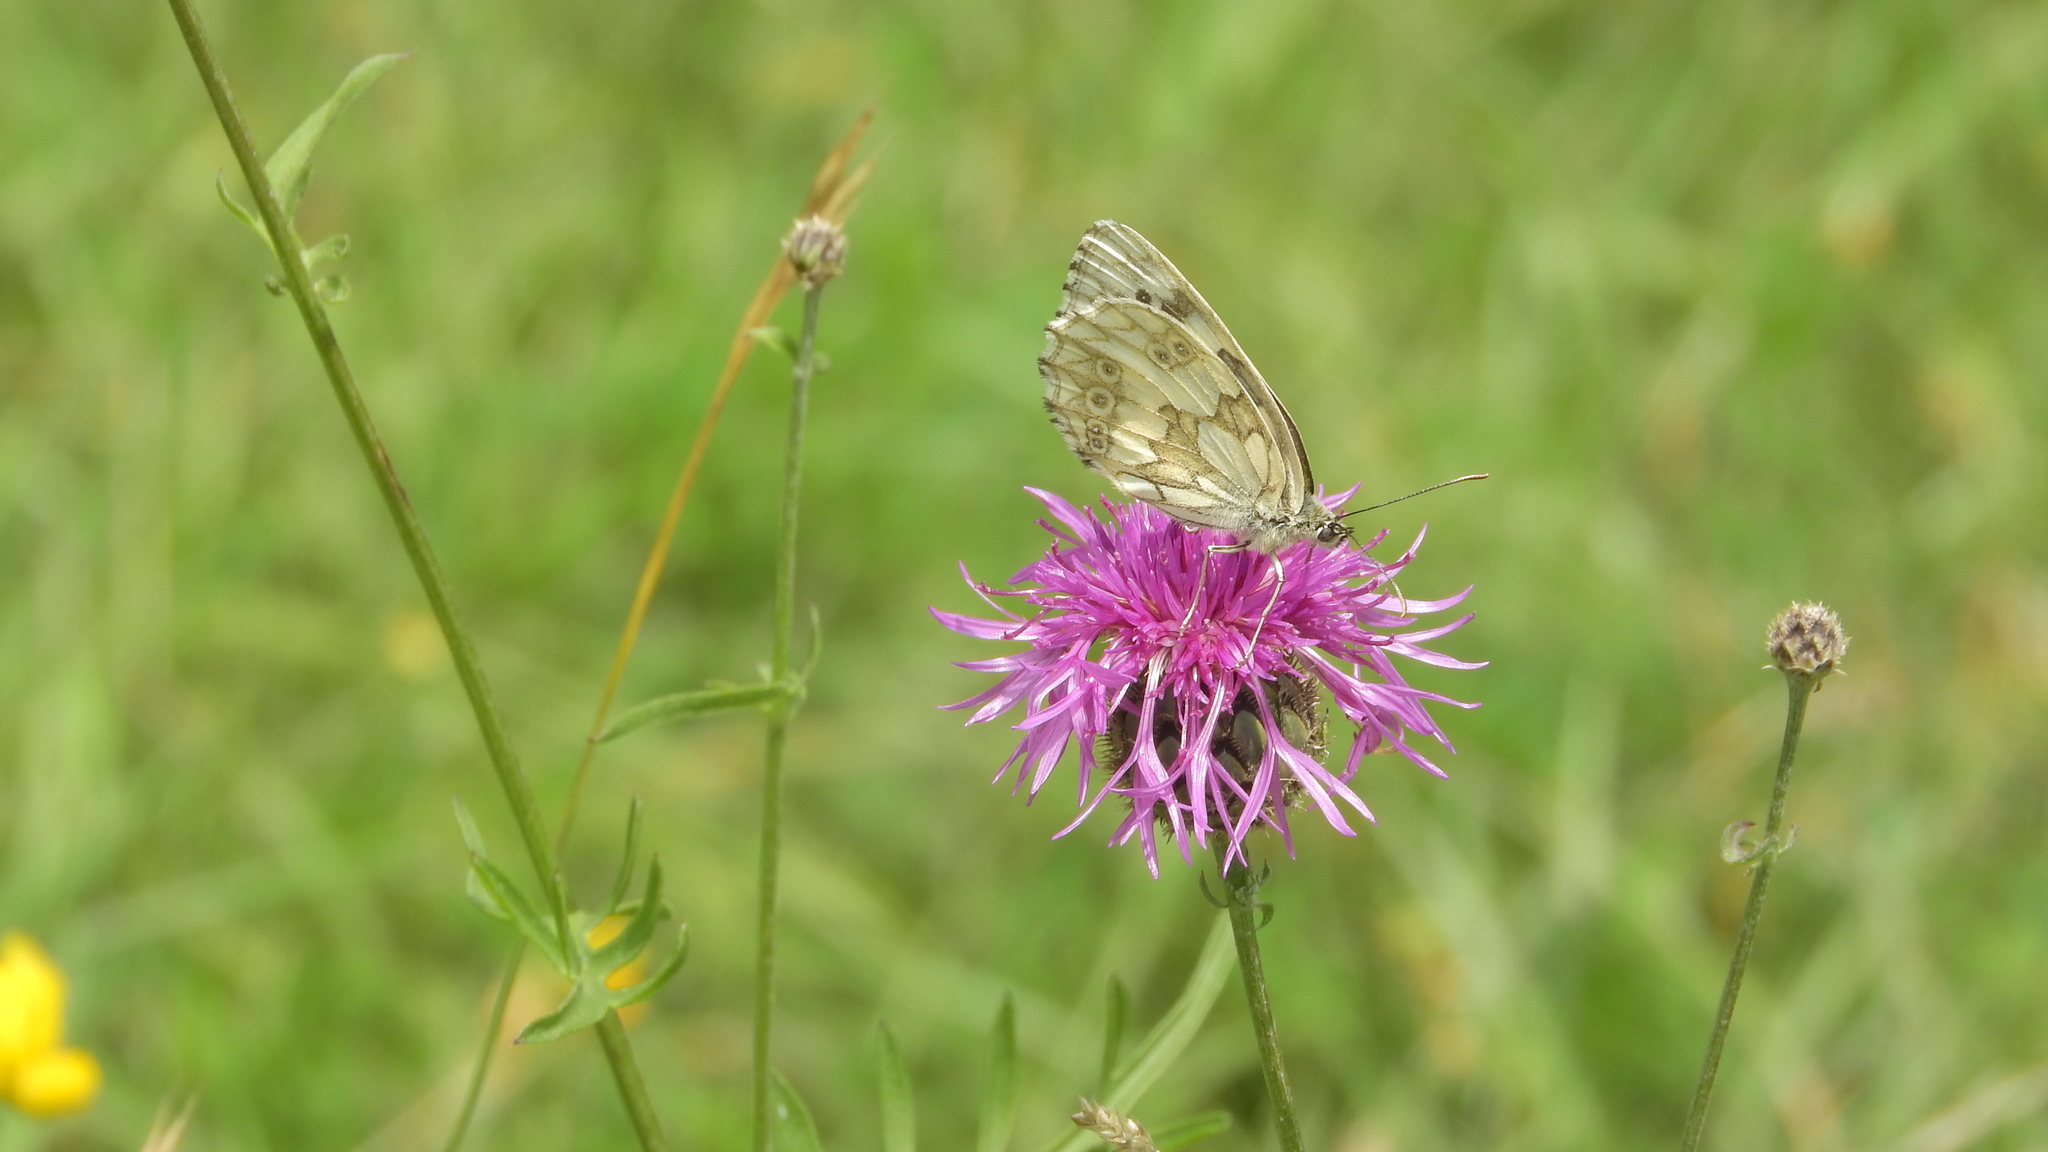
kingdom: Animalia
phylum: Arthropoda
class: Insecta
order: Lepidoptera
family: Nymphalidae
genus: Melanargia
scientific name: Melanargia galathea
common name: Marbled white
